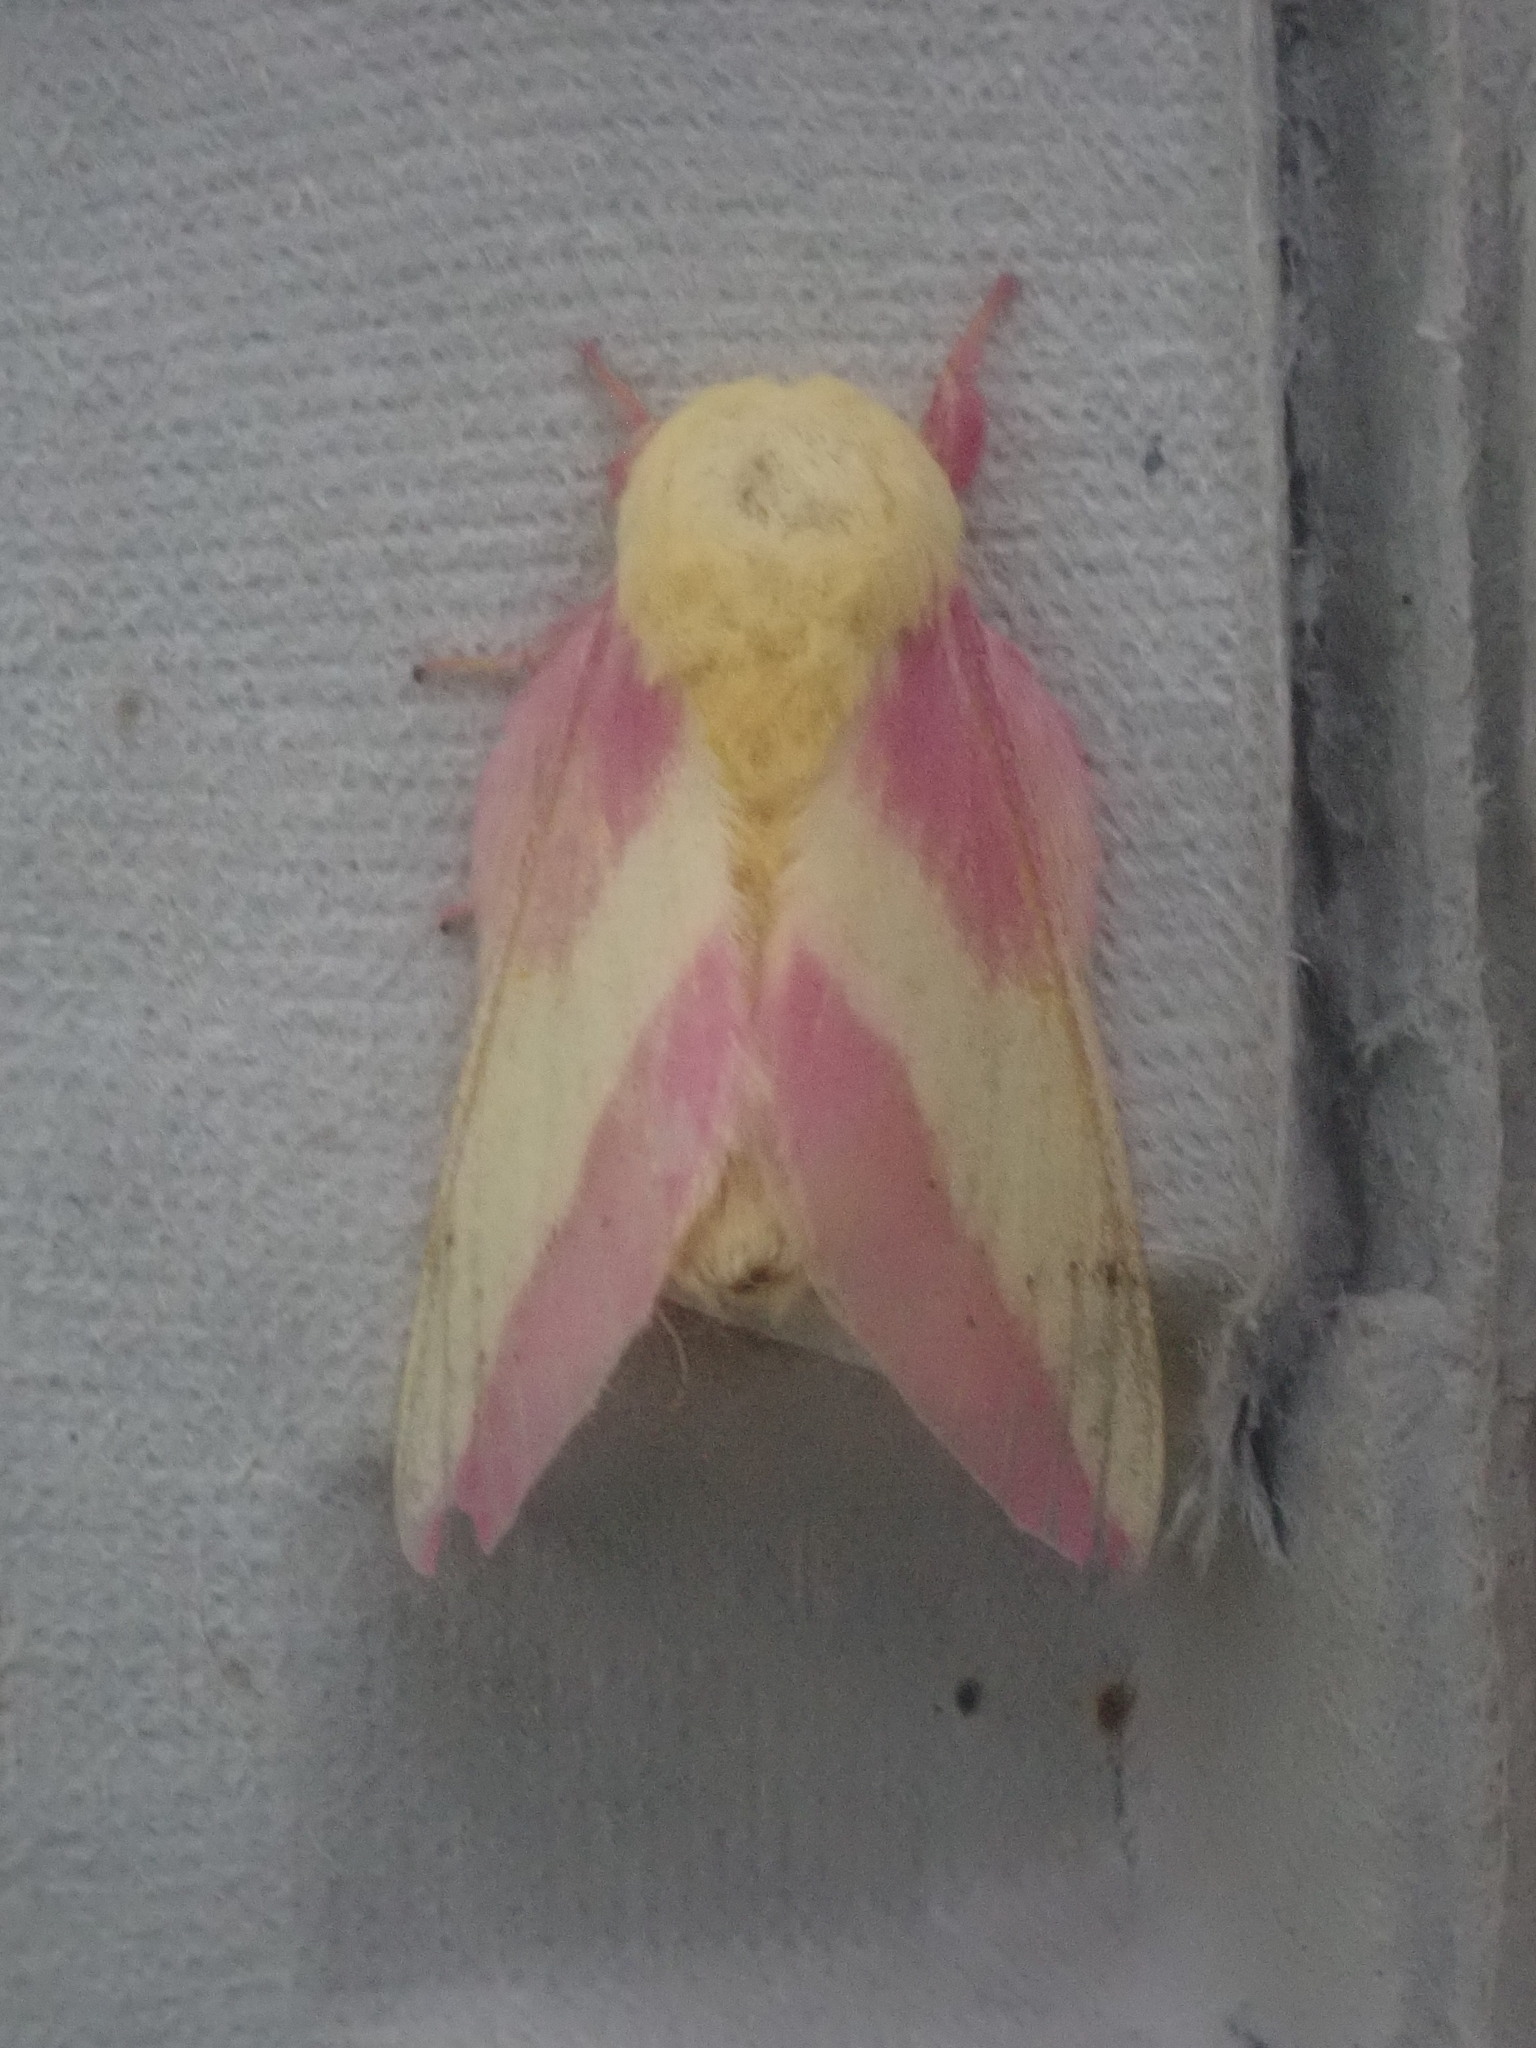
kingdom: Animalia
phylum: Arthropoda
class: Insecta
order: Lepidoptera
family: Saturniidae
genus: Dryocampa
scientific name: Dryocampa rubicunda
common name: Rosy maple moth
